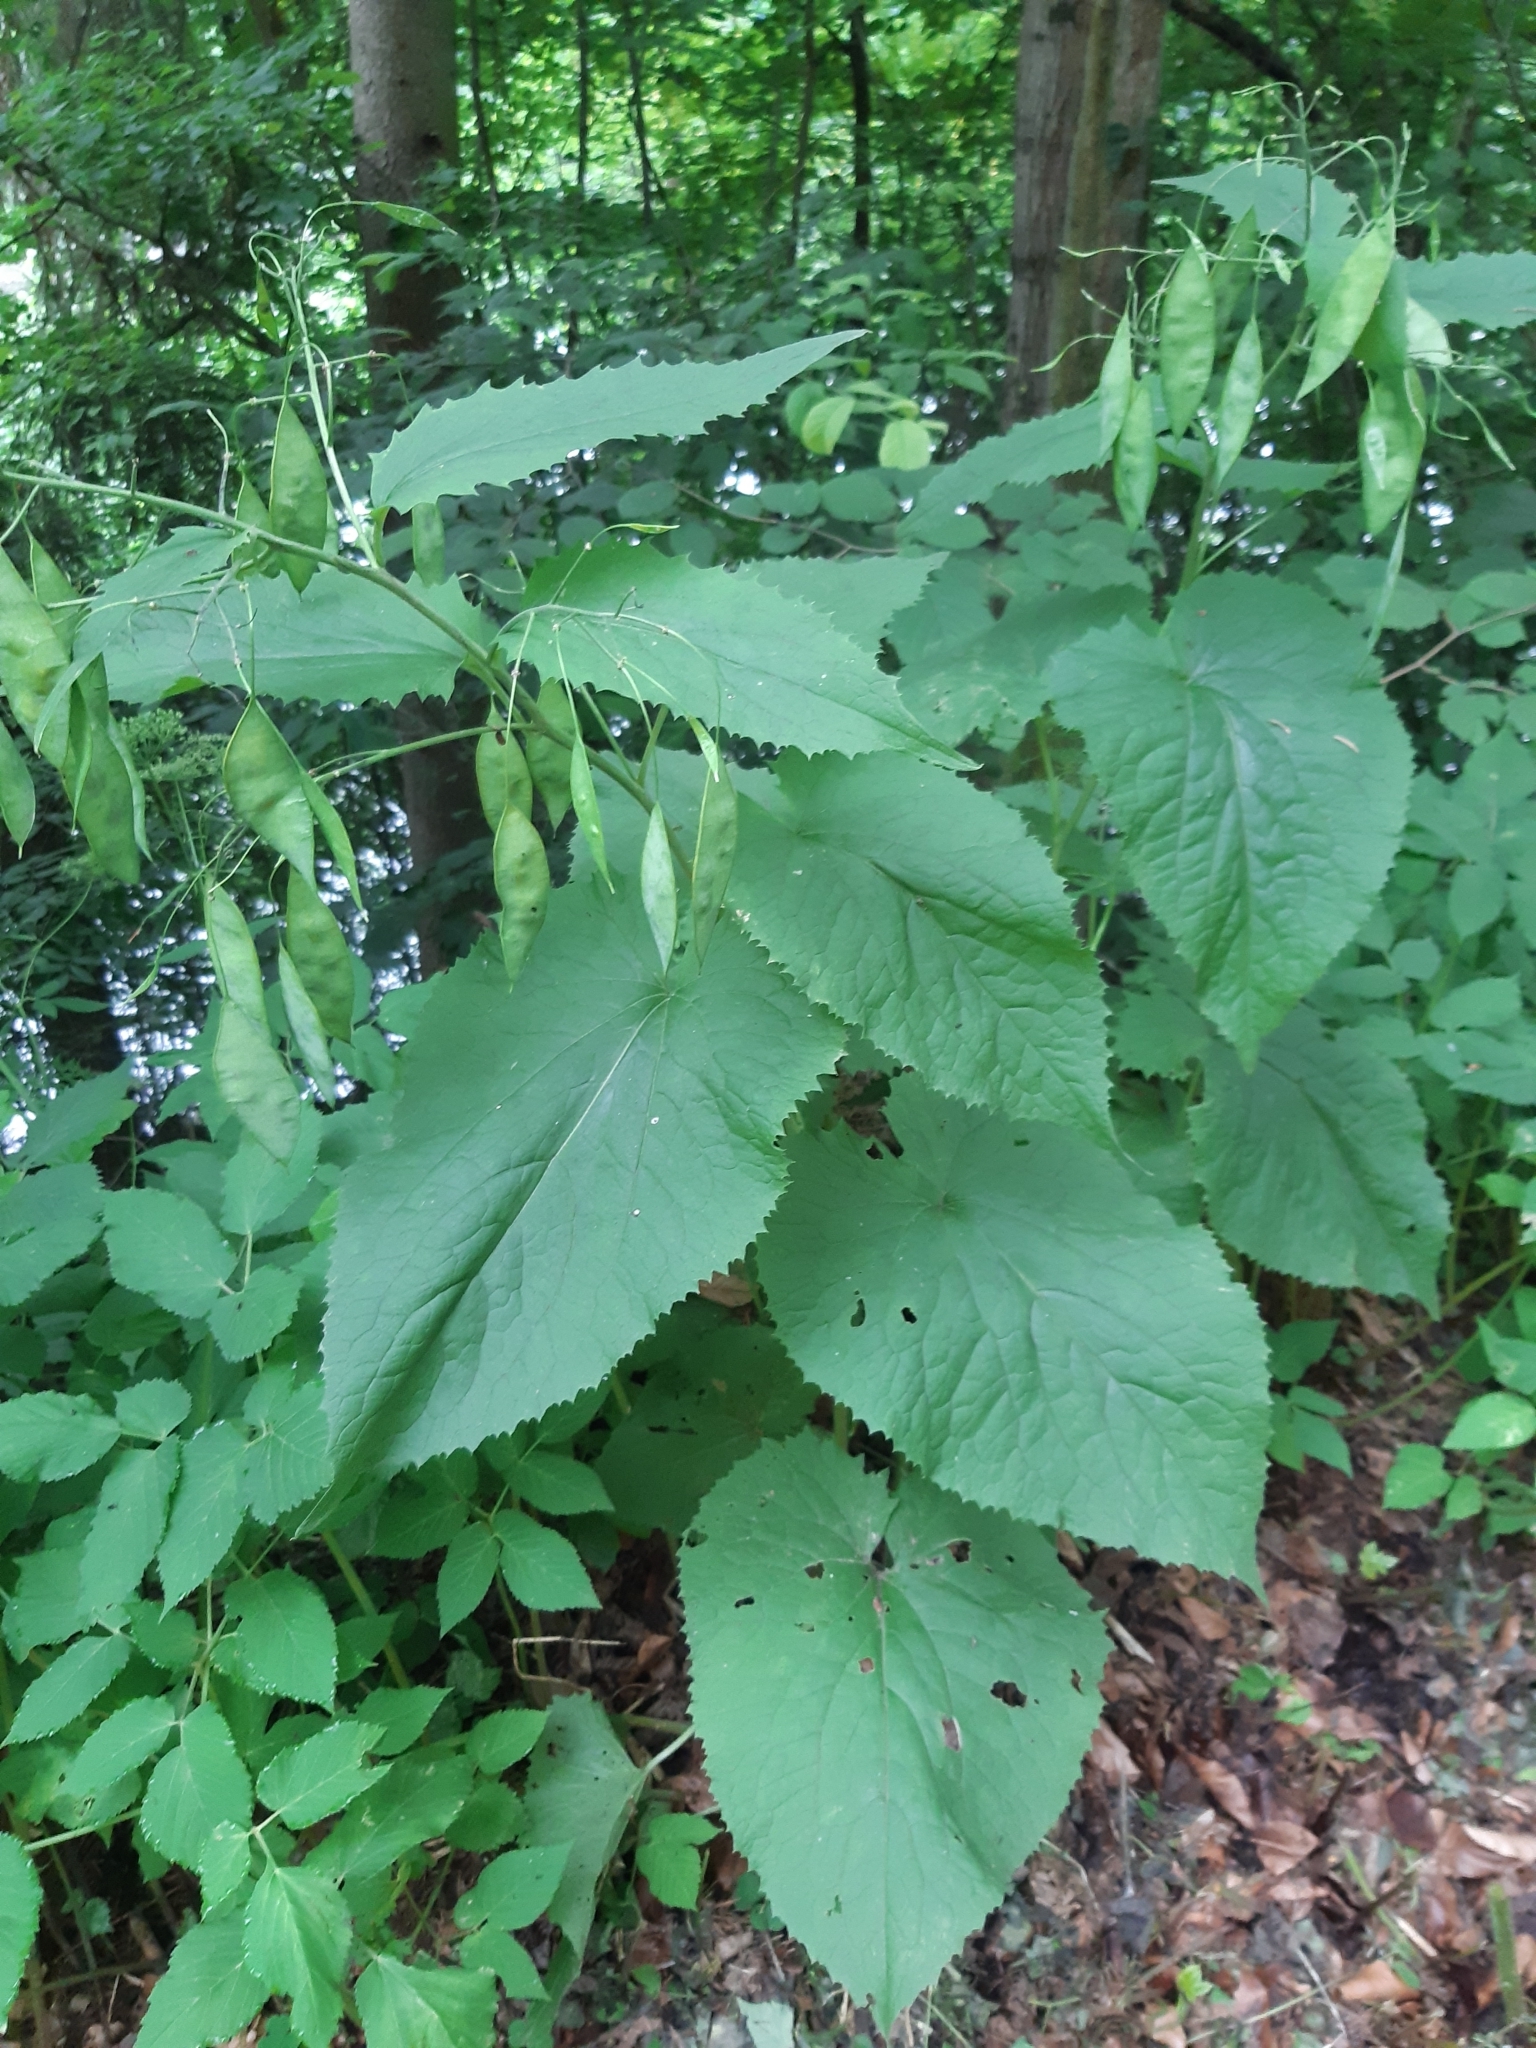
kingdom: Plantae
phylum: Tracheophyta
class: Magnoliopsida
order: Brassicales
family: Brassicaceae
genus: Lunaria
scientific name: Lunaria rediviva
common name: Perennial honesty
